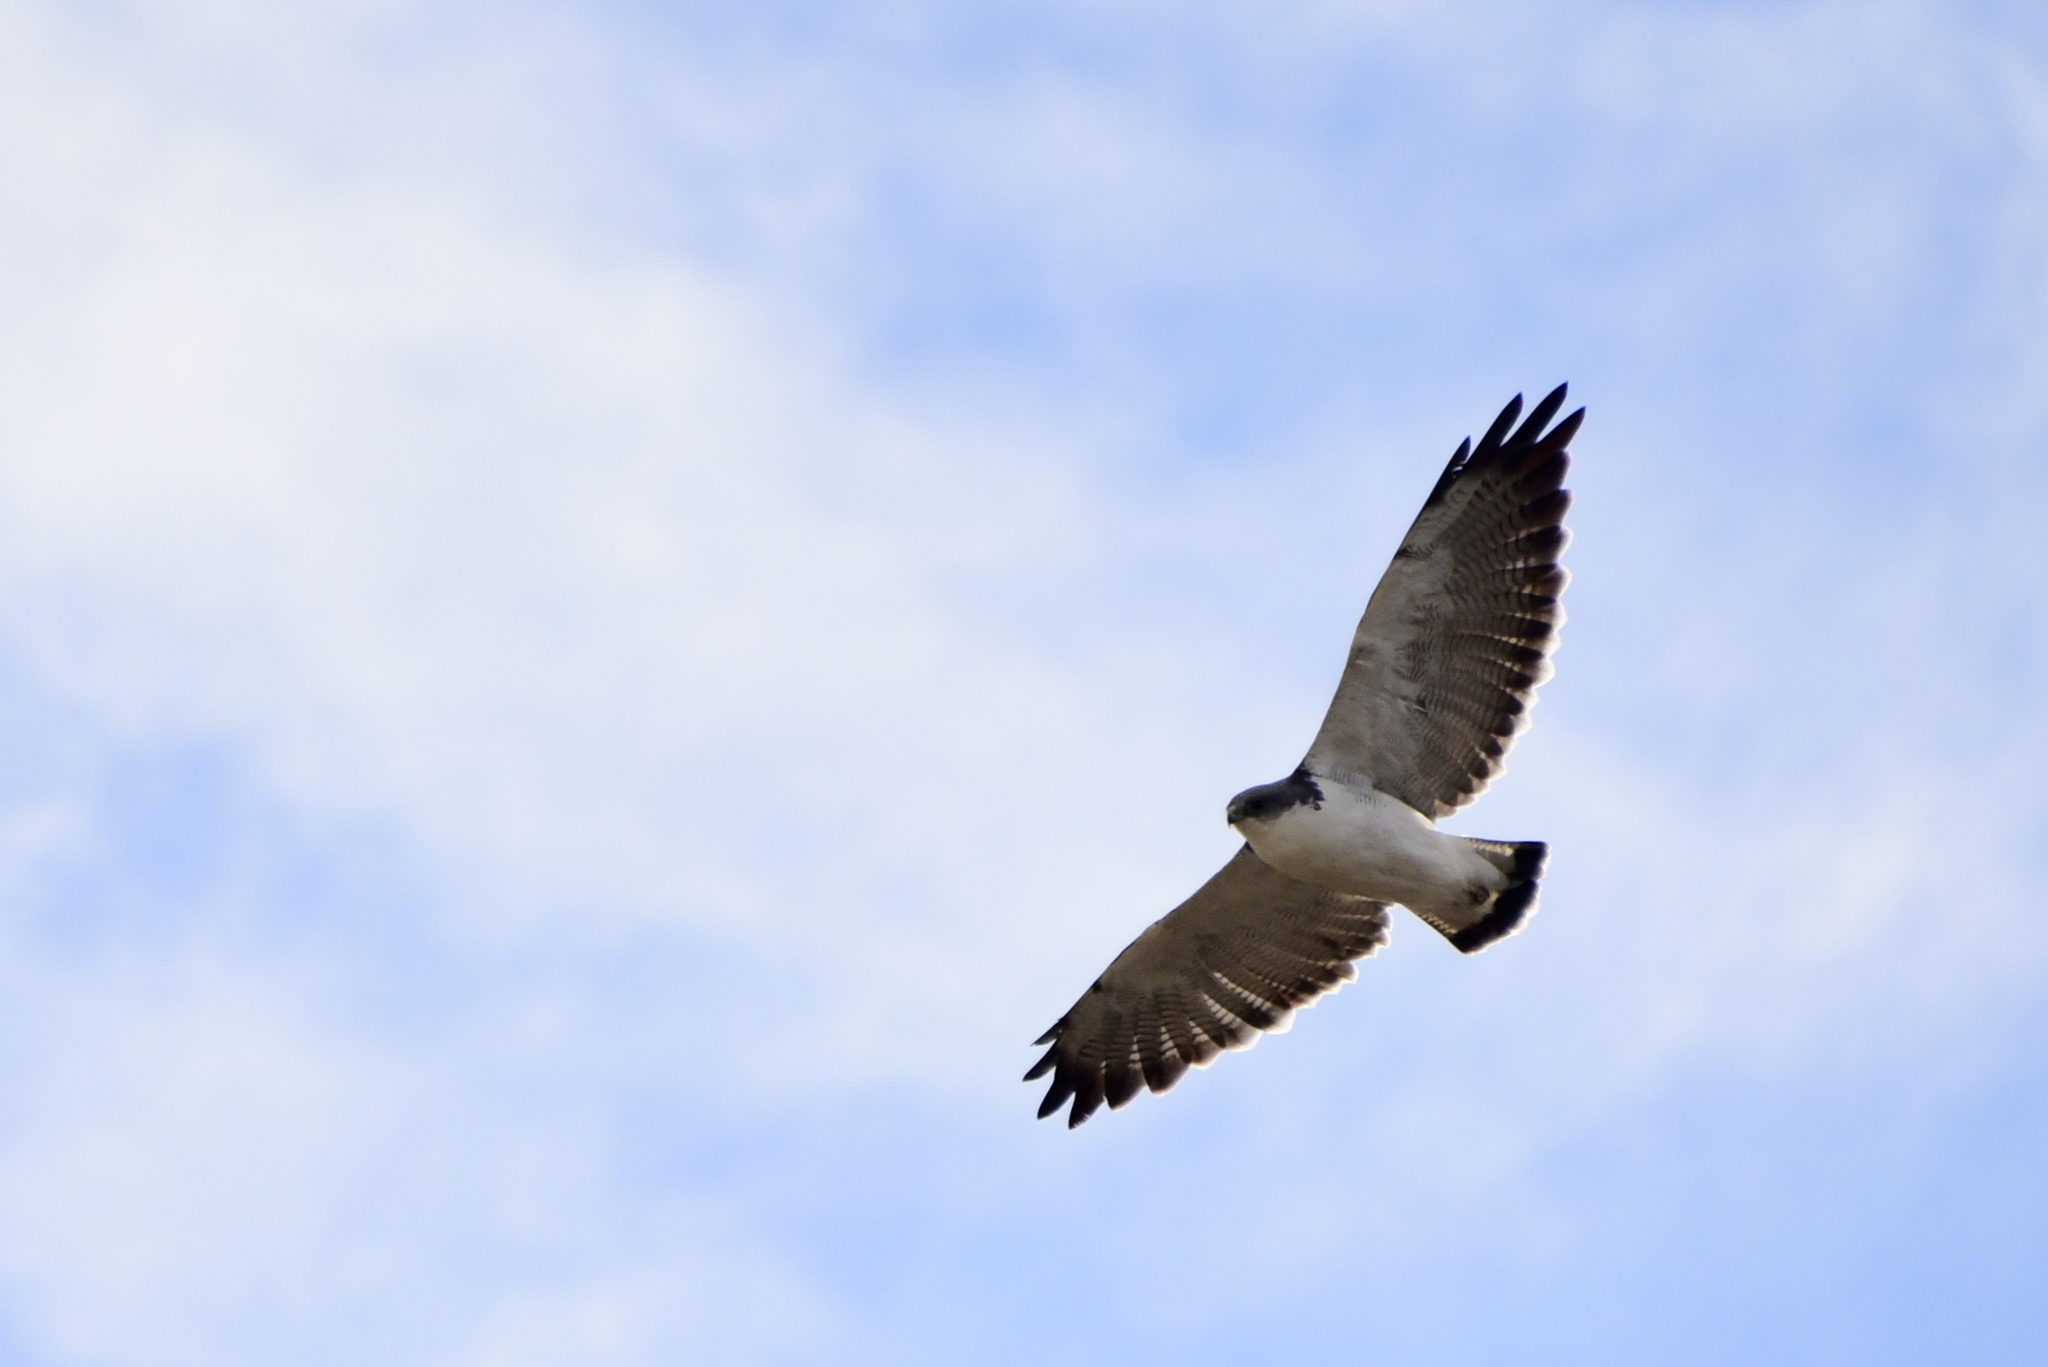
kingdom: Animalia
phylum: Chordata
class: Aves
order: Accipitriformes
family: Accipitridae
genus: Buteo
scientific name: Buteo polyosoma
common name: Variable hawk
